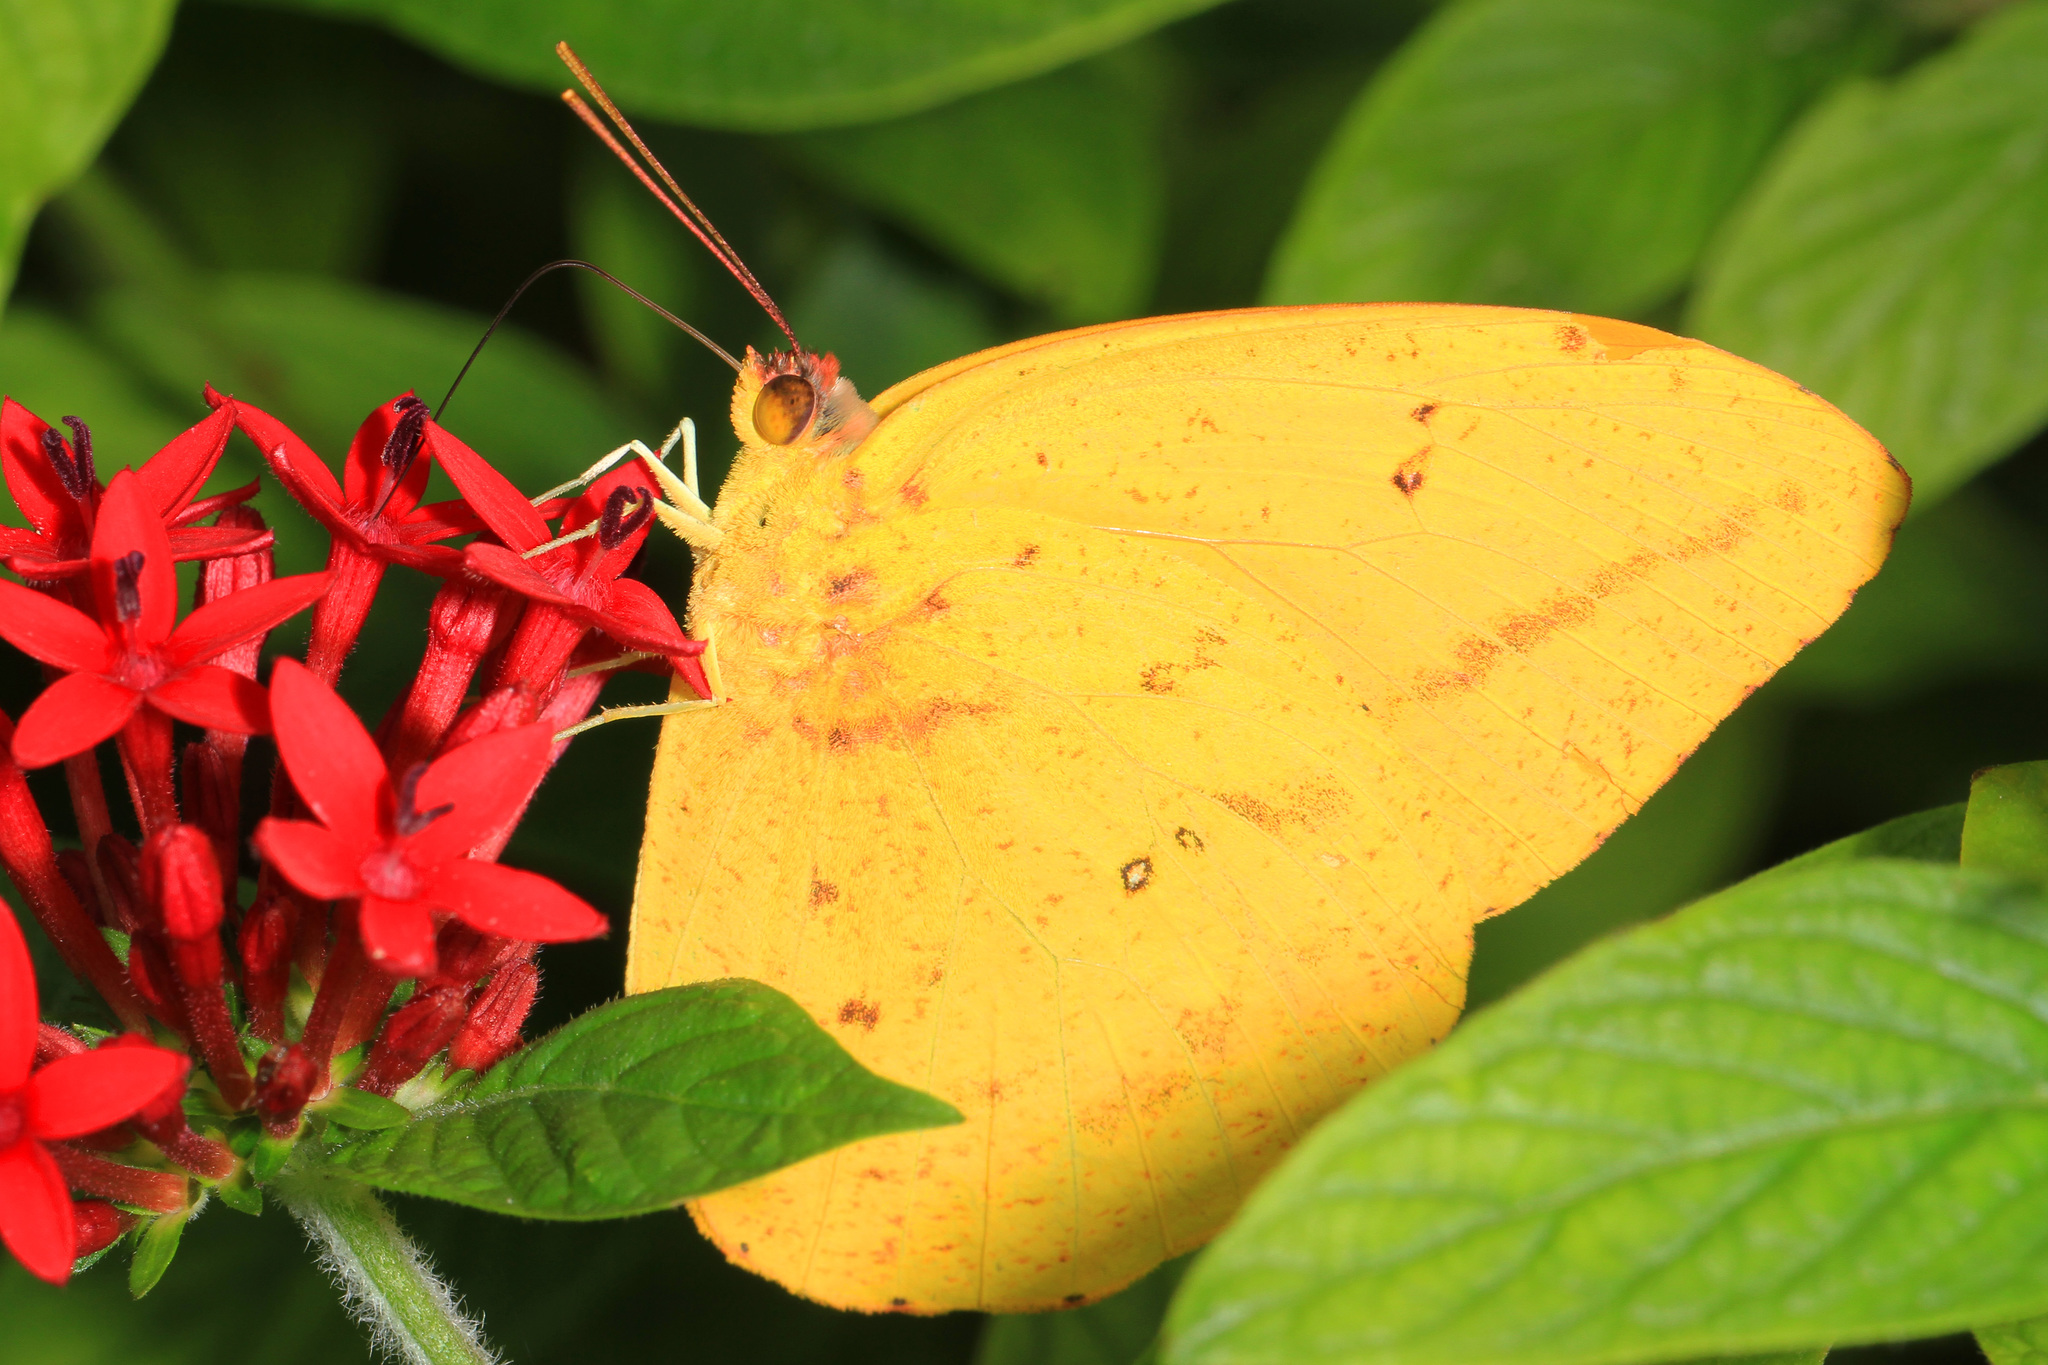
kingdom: Animalia
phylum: Arthropoda
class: Insecta
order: Lepidoptera
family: Pieridae
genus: Phoebis
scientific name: Phoebis agarithe
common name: Large orange sulphur
